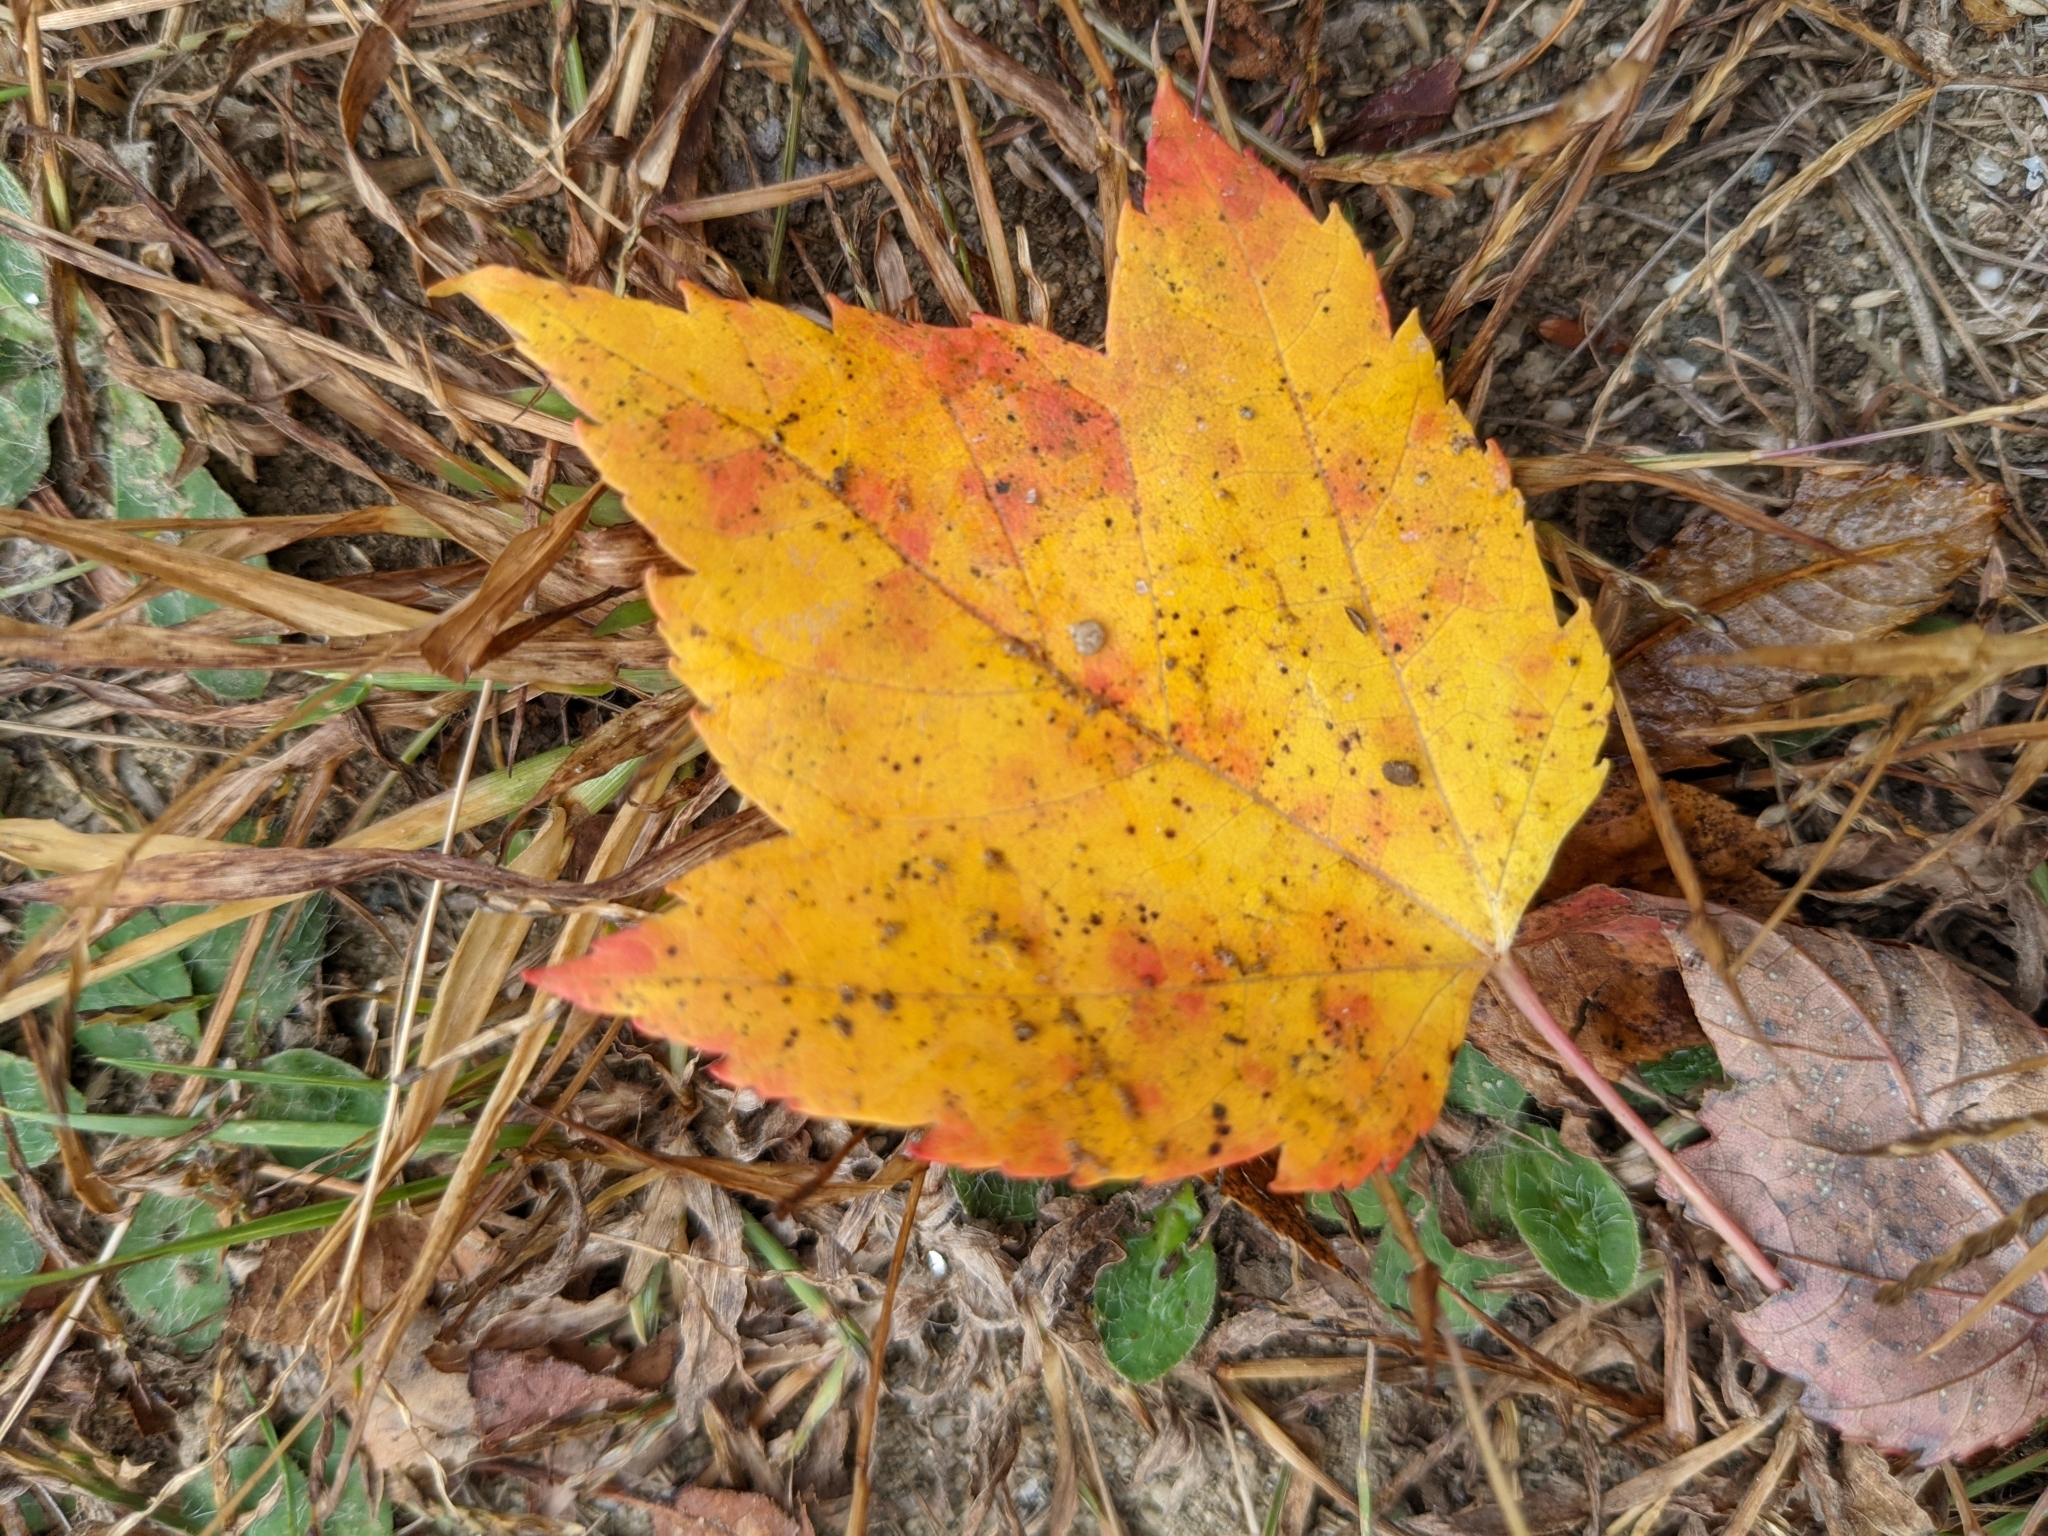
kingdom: Plantae
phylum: Tracheophyta
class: Magnoliopsida
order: Sapindales
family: Sapindaceae
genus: Acer
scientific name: Acer rubrum
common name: Red maple
